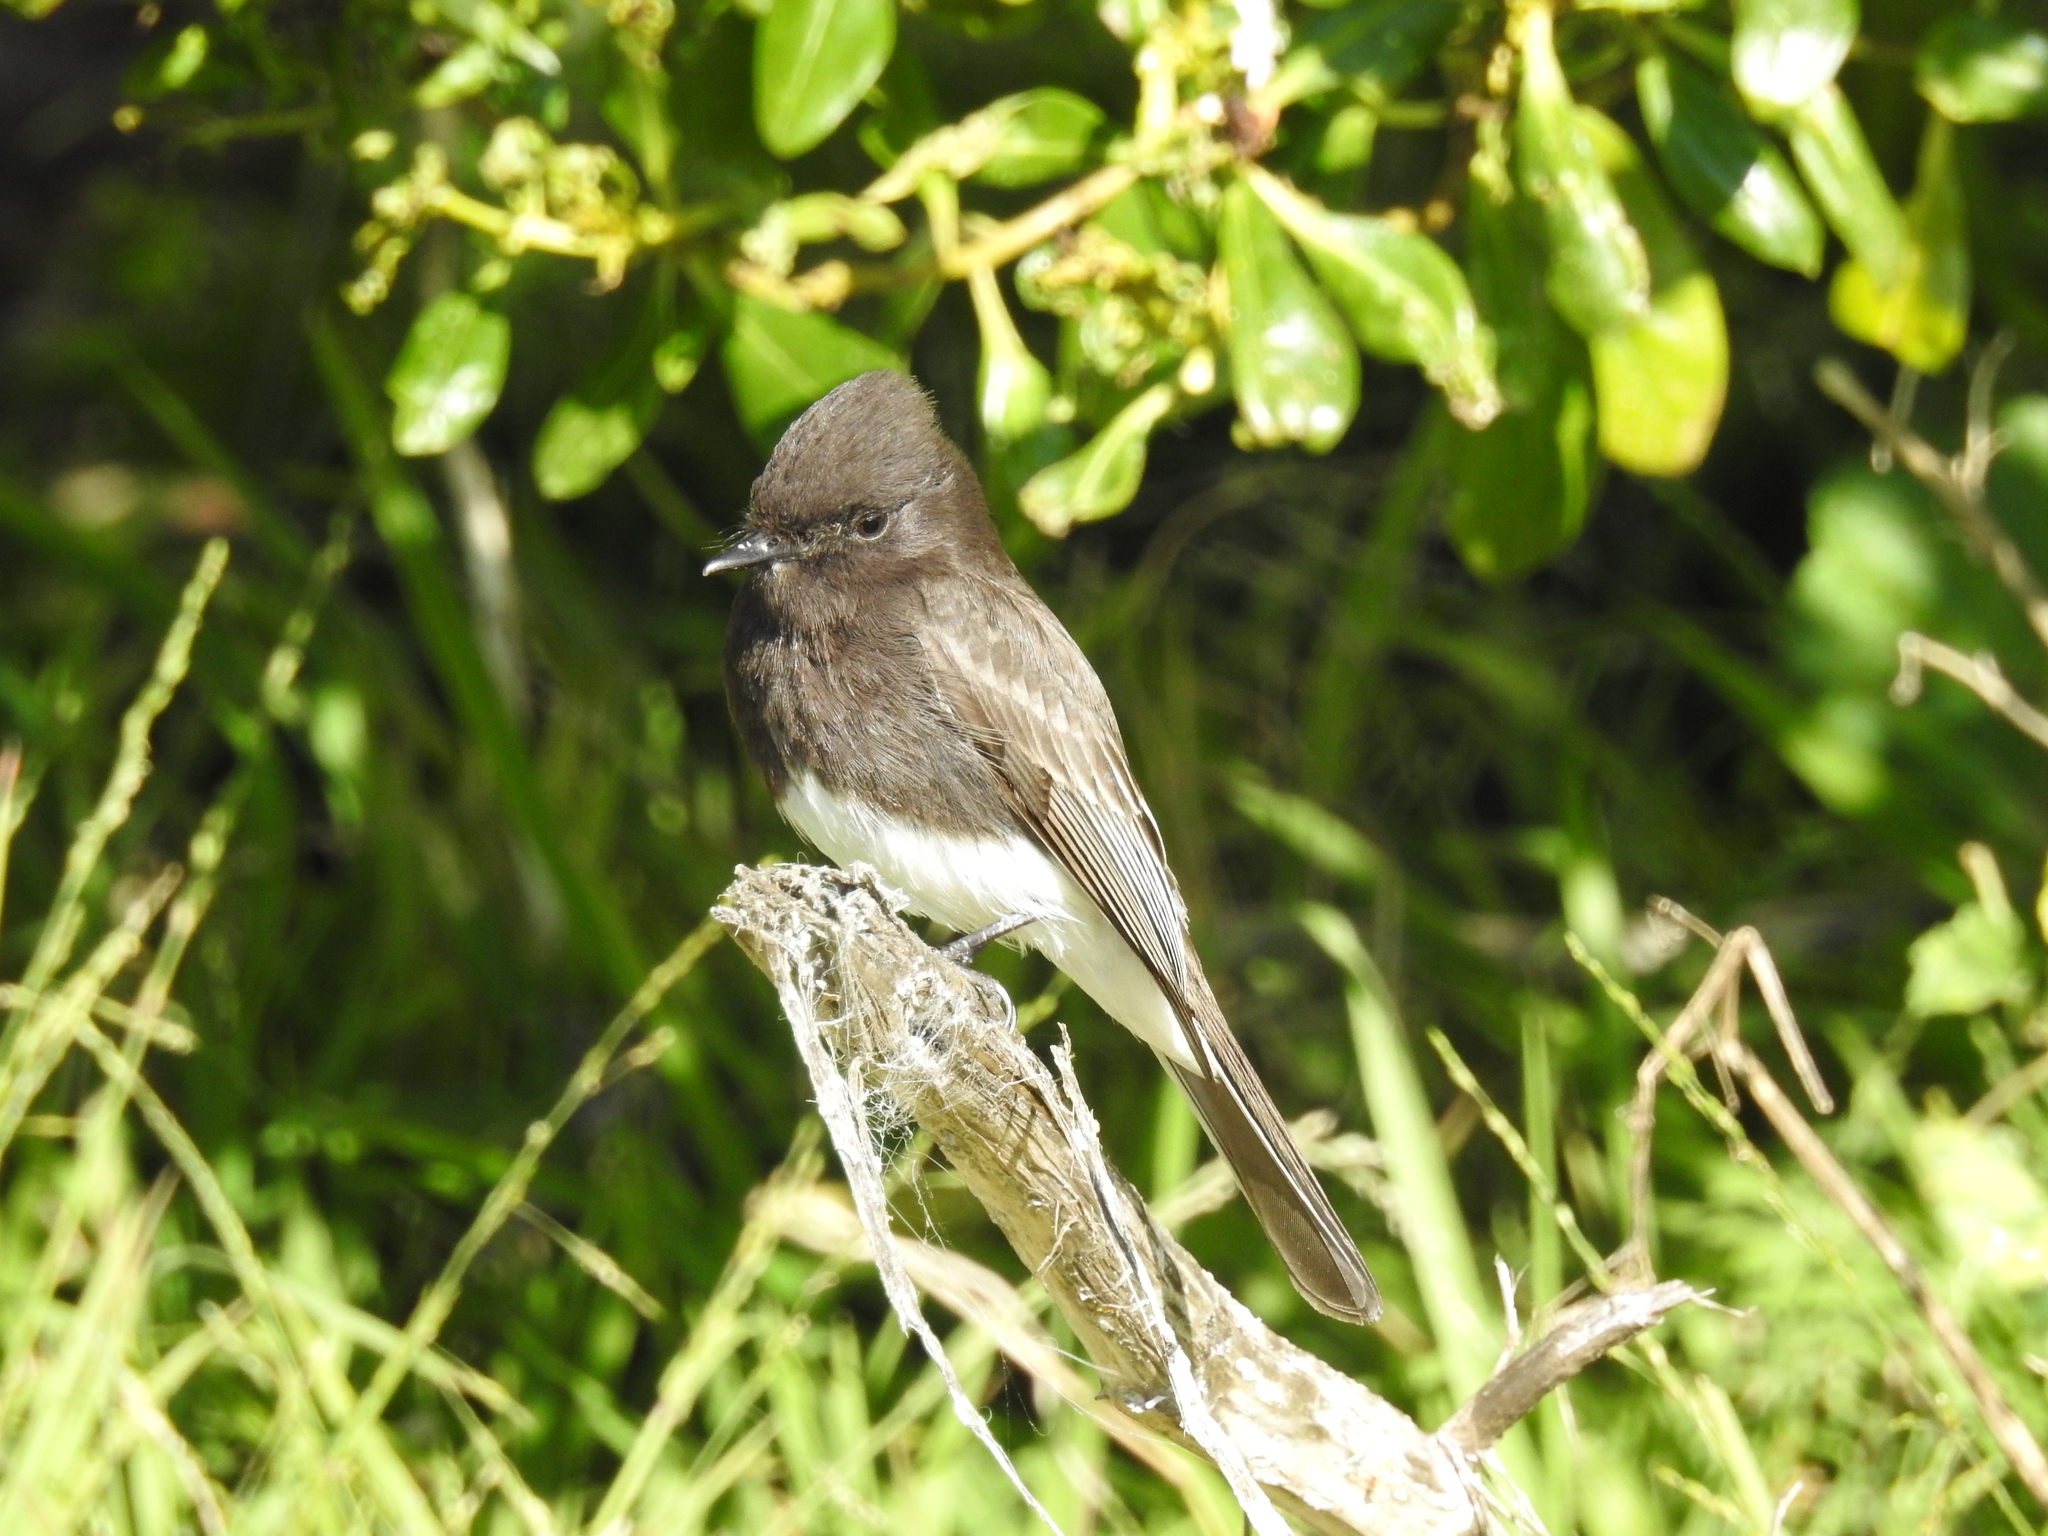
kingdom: Animalia
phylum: Chordata
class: Aves
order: Passeriformes
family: Tyrannidae
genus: Sayornis
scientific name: Sayornis nigricans
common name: Black phoebe
